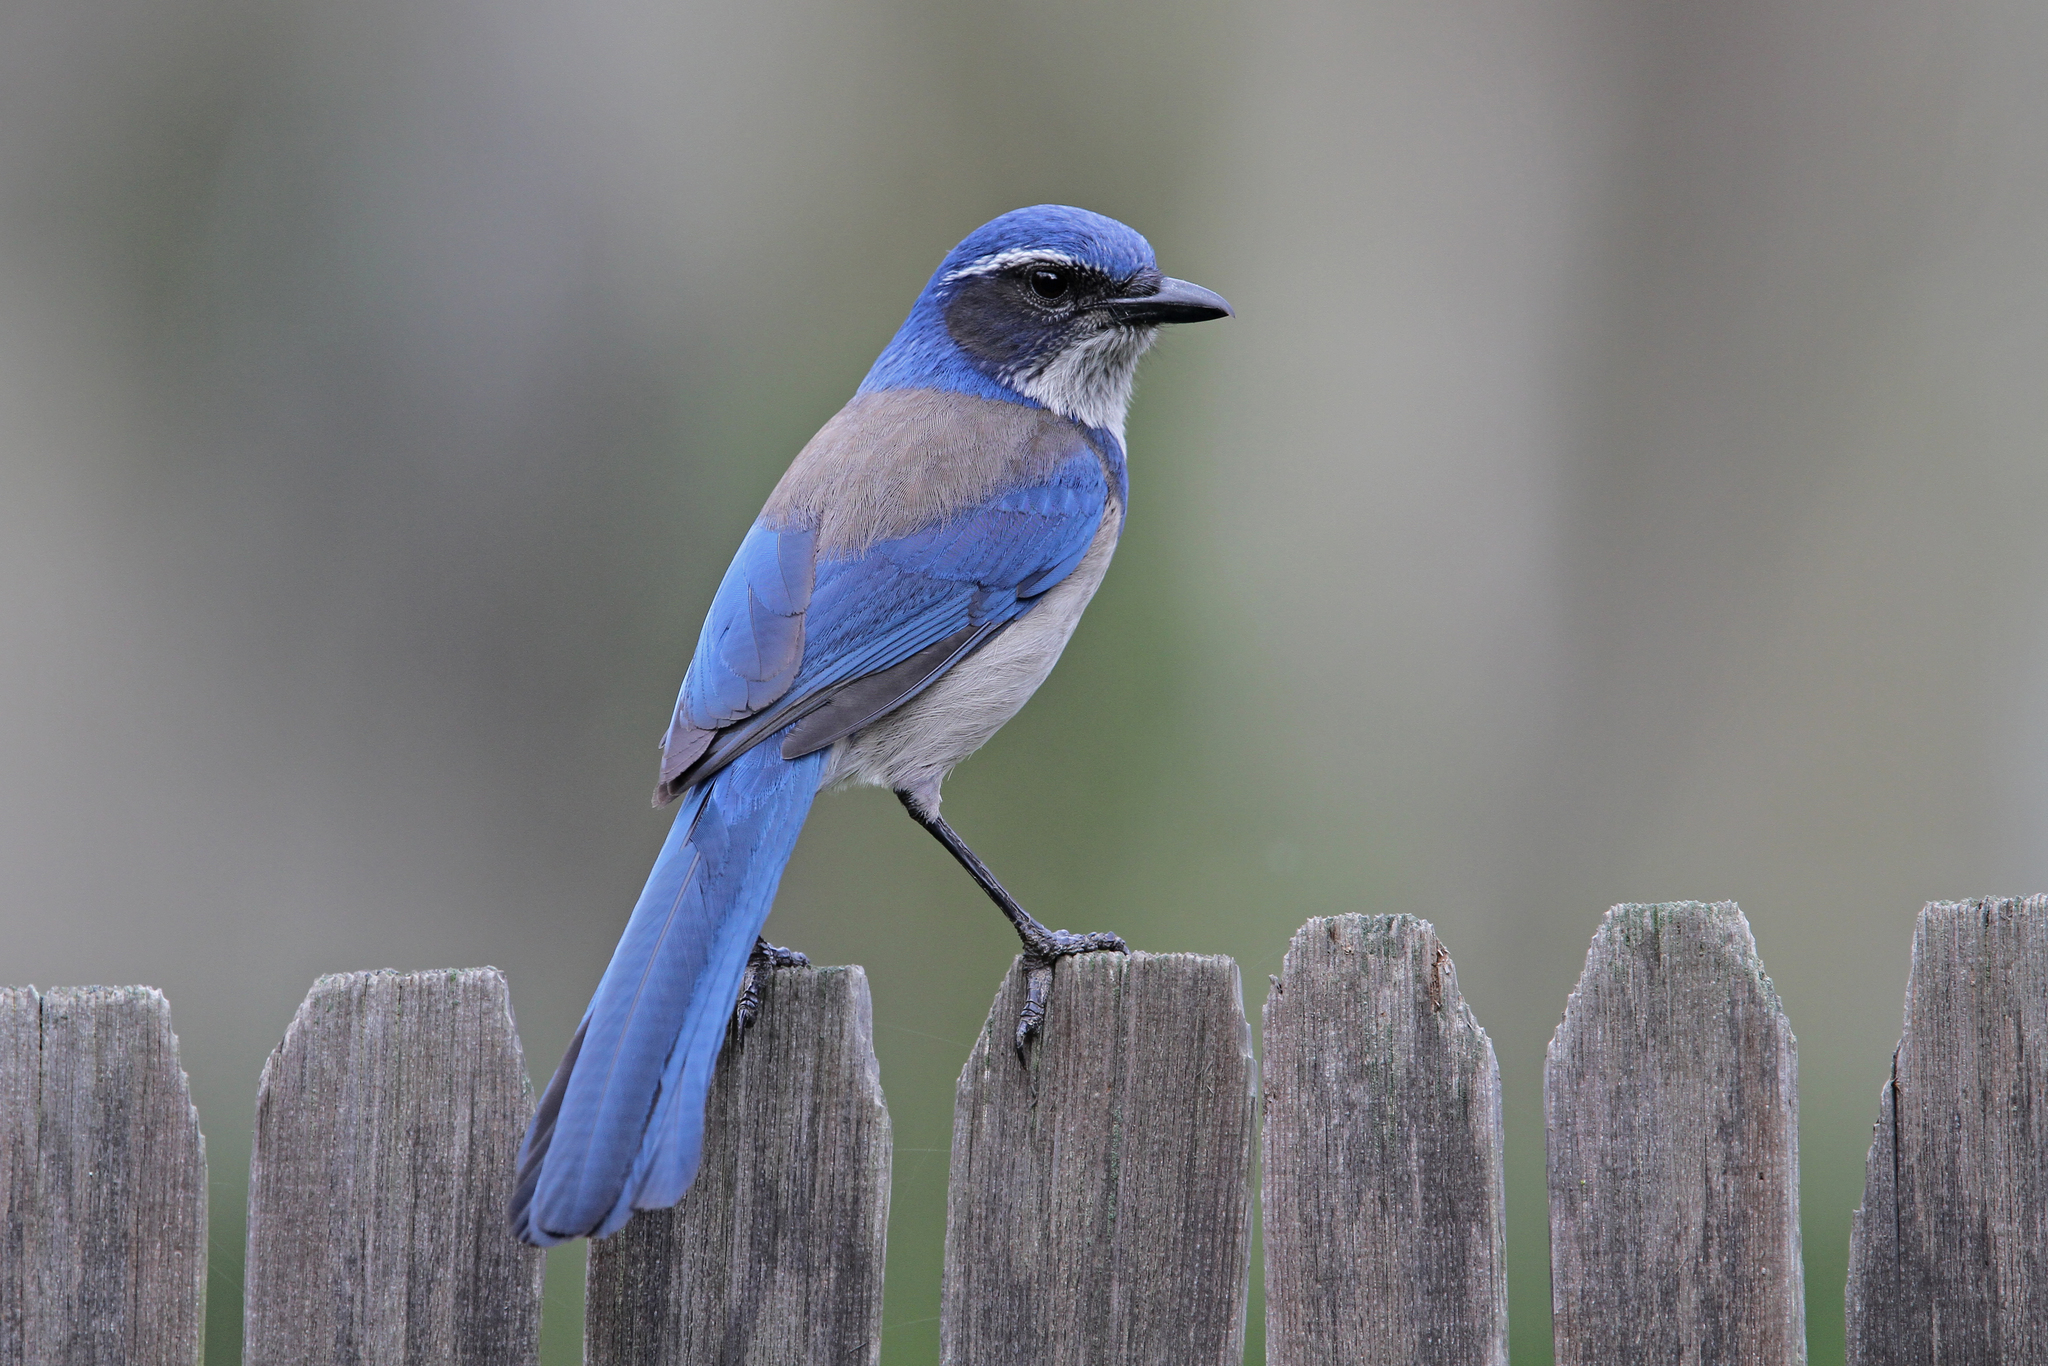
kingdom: Animalia
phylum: Chordata
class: Aves
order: Passeriformes
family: Corvidae
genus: Aphelocoma
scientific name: Aphelocoma californica
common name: California scrub-jay
